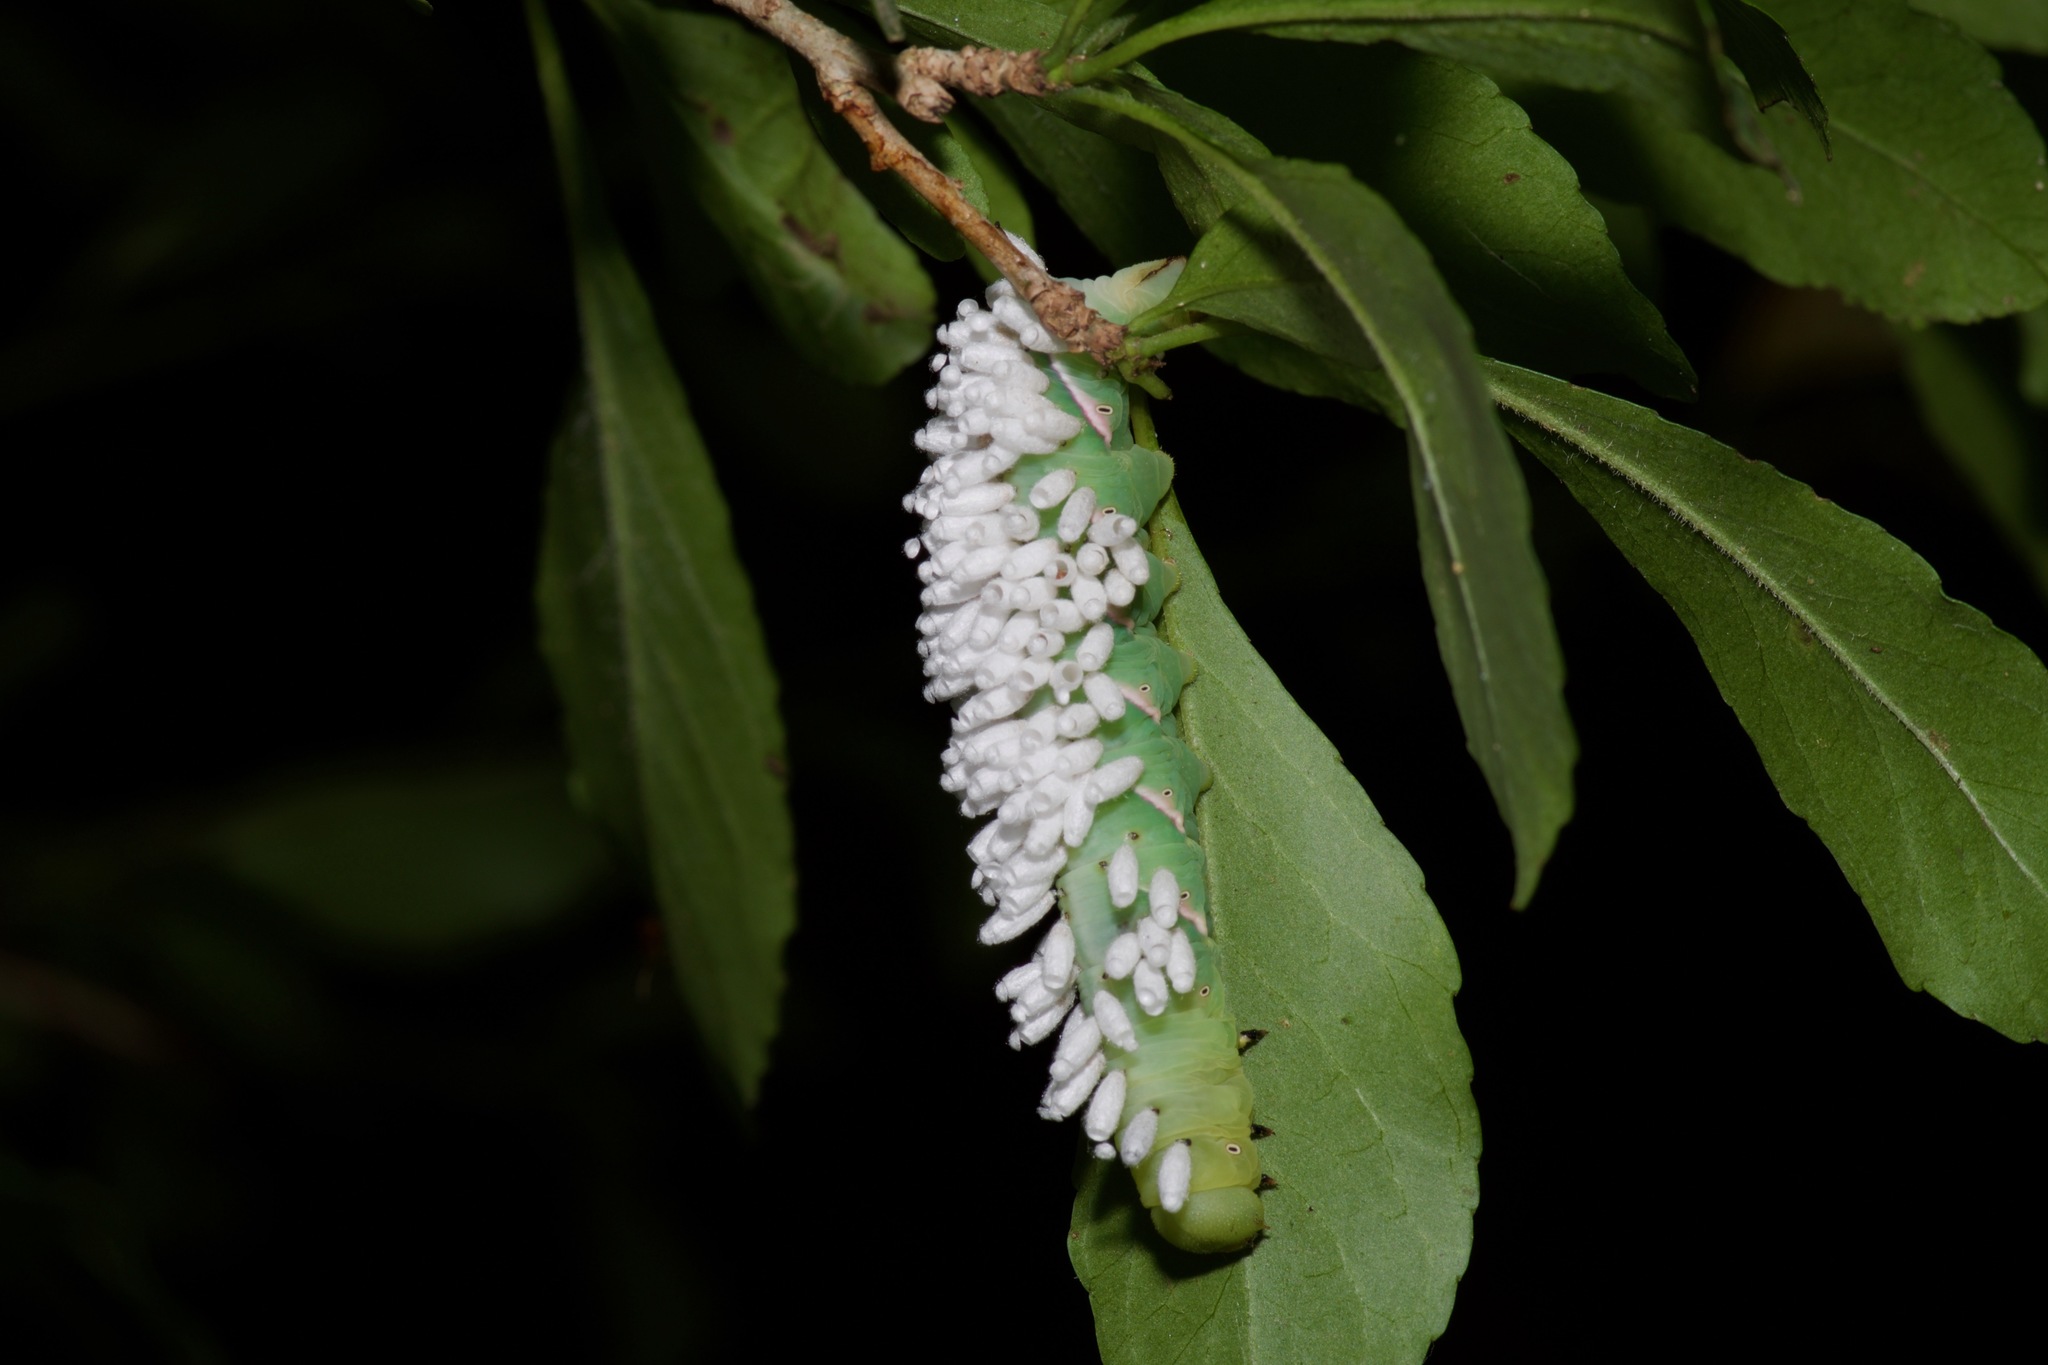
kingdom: Animalia
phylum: Arthropoda
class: Insecta
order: Lepidoptera
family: Sphingidae
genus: Dolba
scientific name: Dolba hyloeus
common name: Pawpaw sphinx
